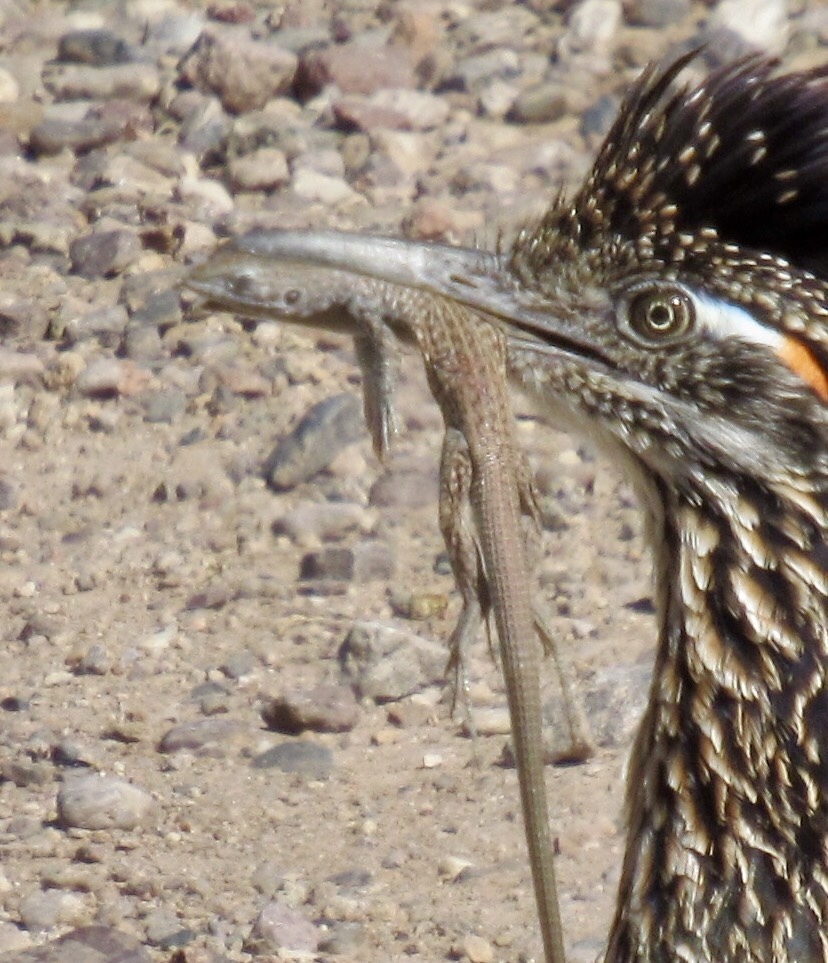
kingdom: Animalia
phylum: Chordata
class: Squamata
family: Teiidae
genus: Aspidoscelis
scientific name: Aspidoscelis tigris
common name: Tiger whiptail
